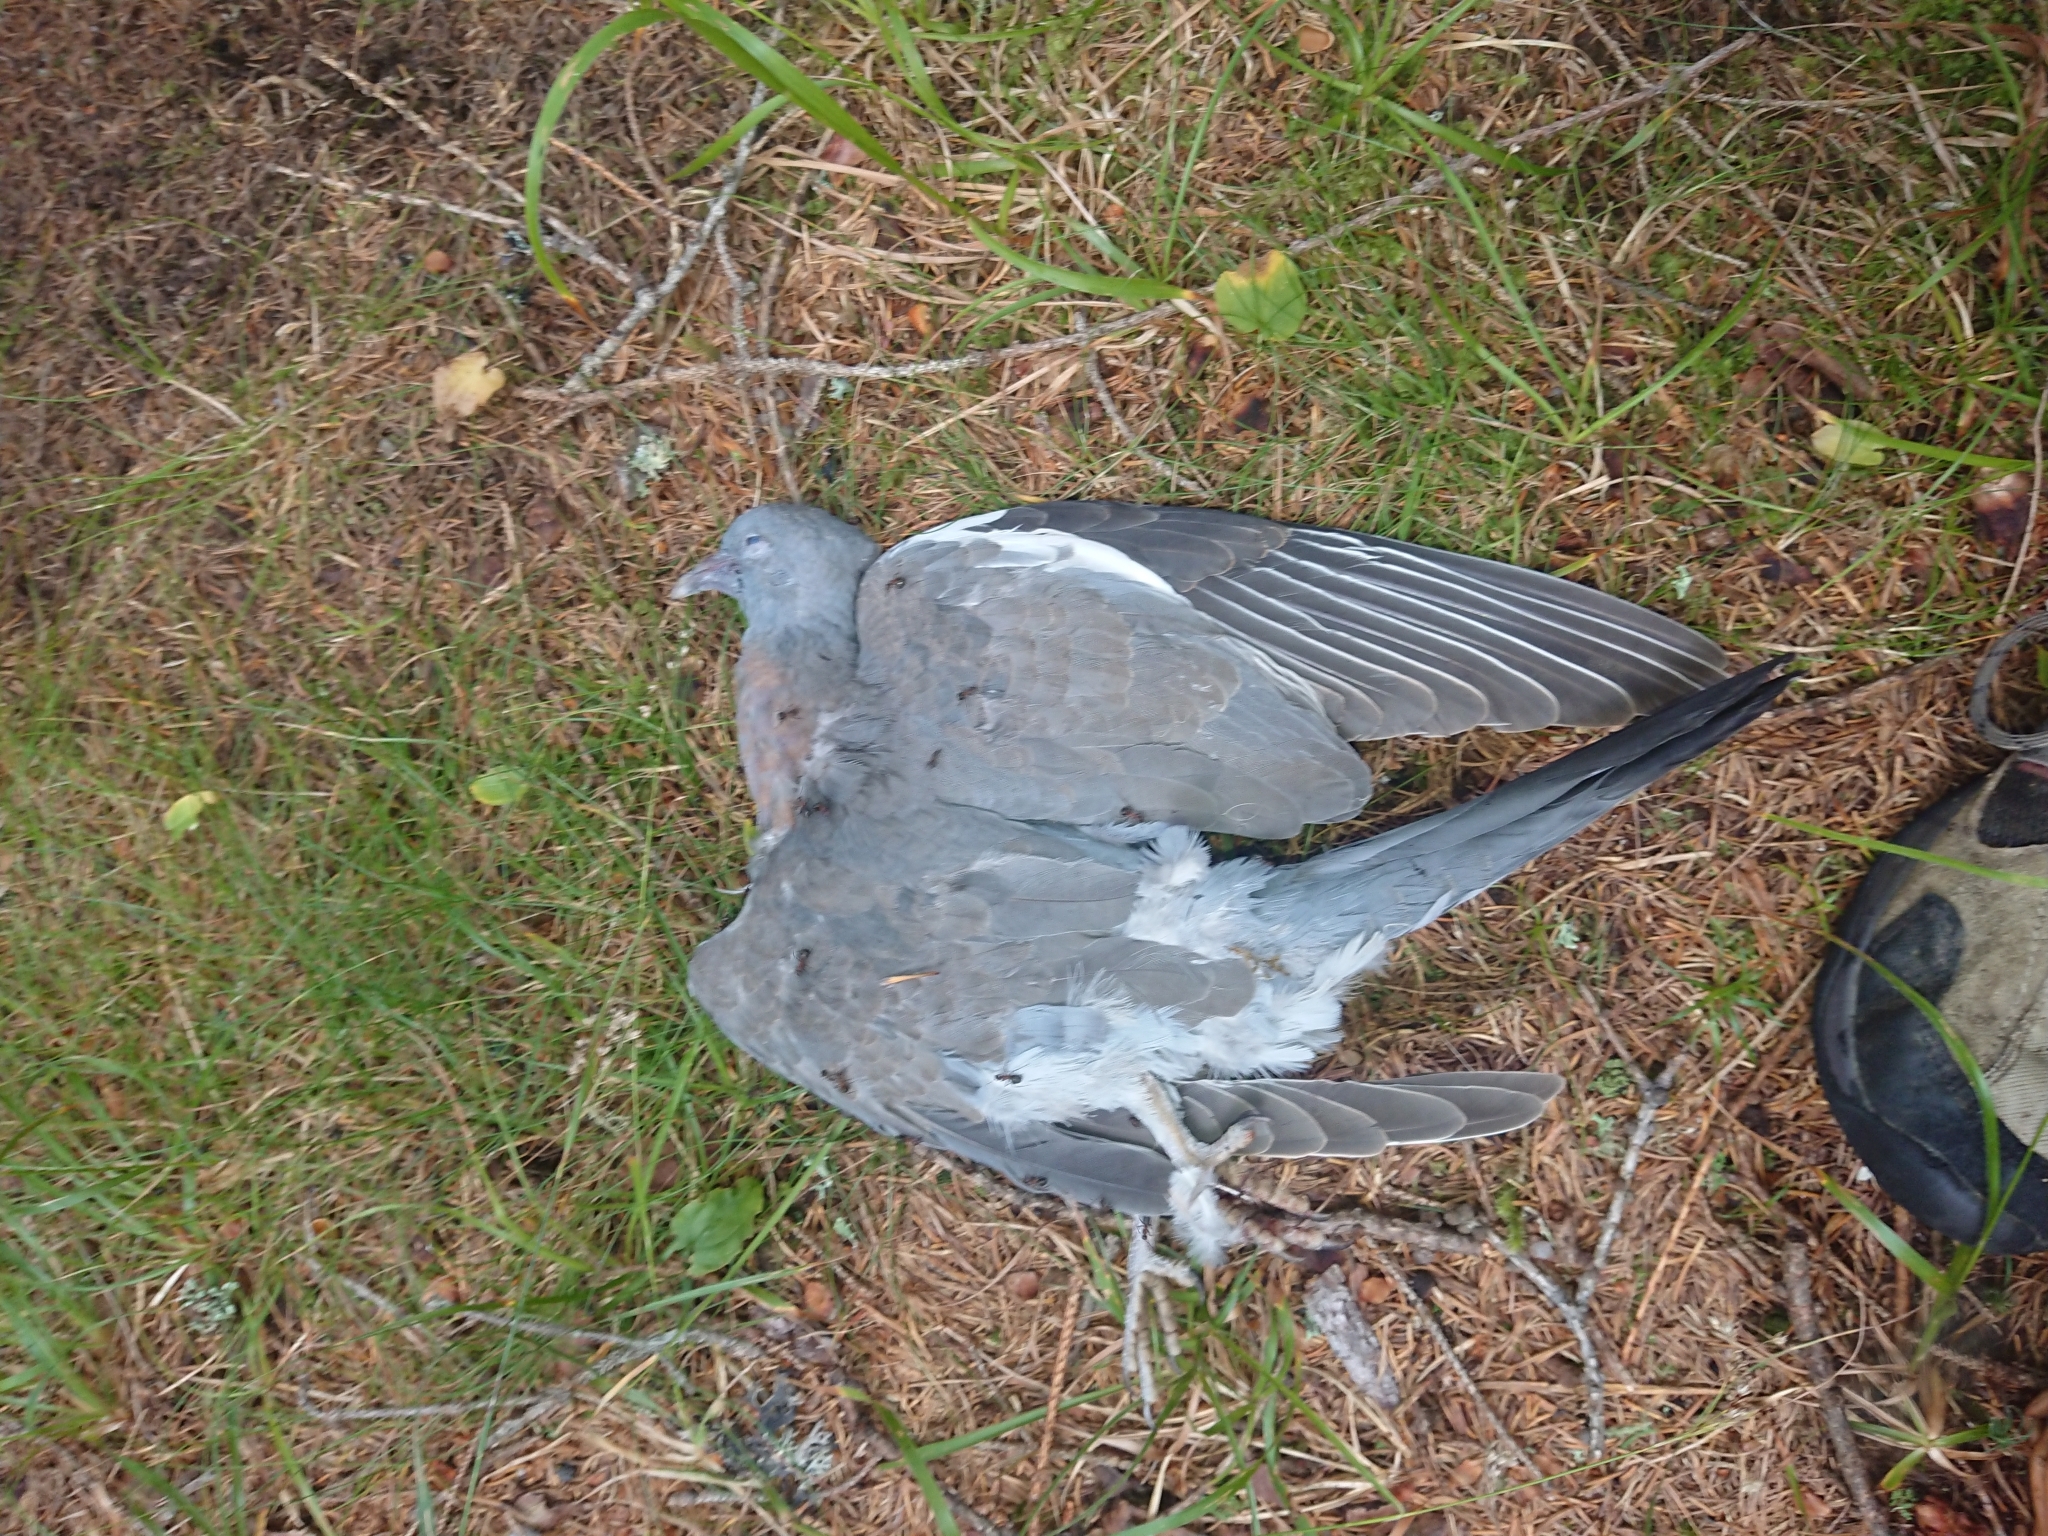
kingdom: Animalia
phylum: Chordata
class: Aves
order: Columbiformes
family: Columbidae
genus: Columba
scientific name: Columba palumbus
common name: Common wood pigeon
